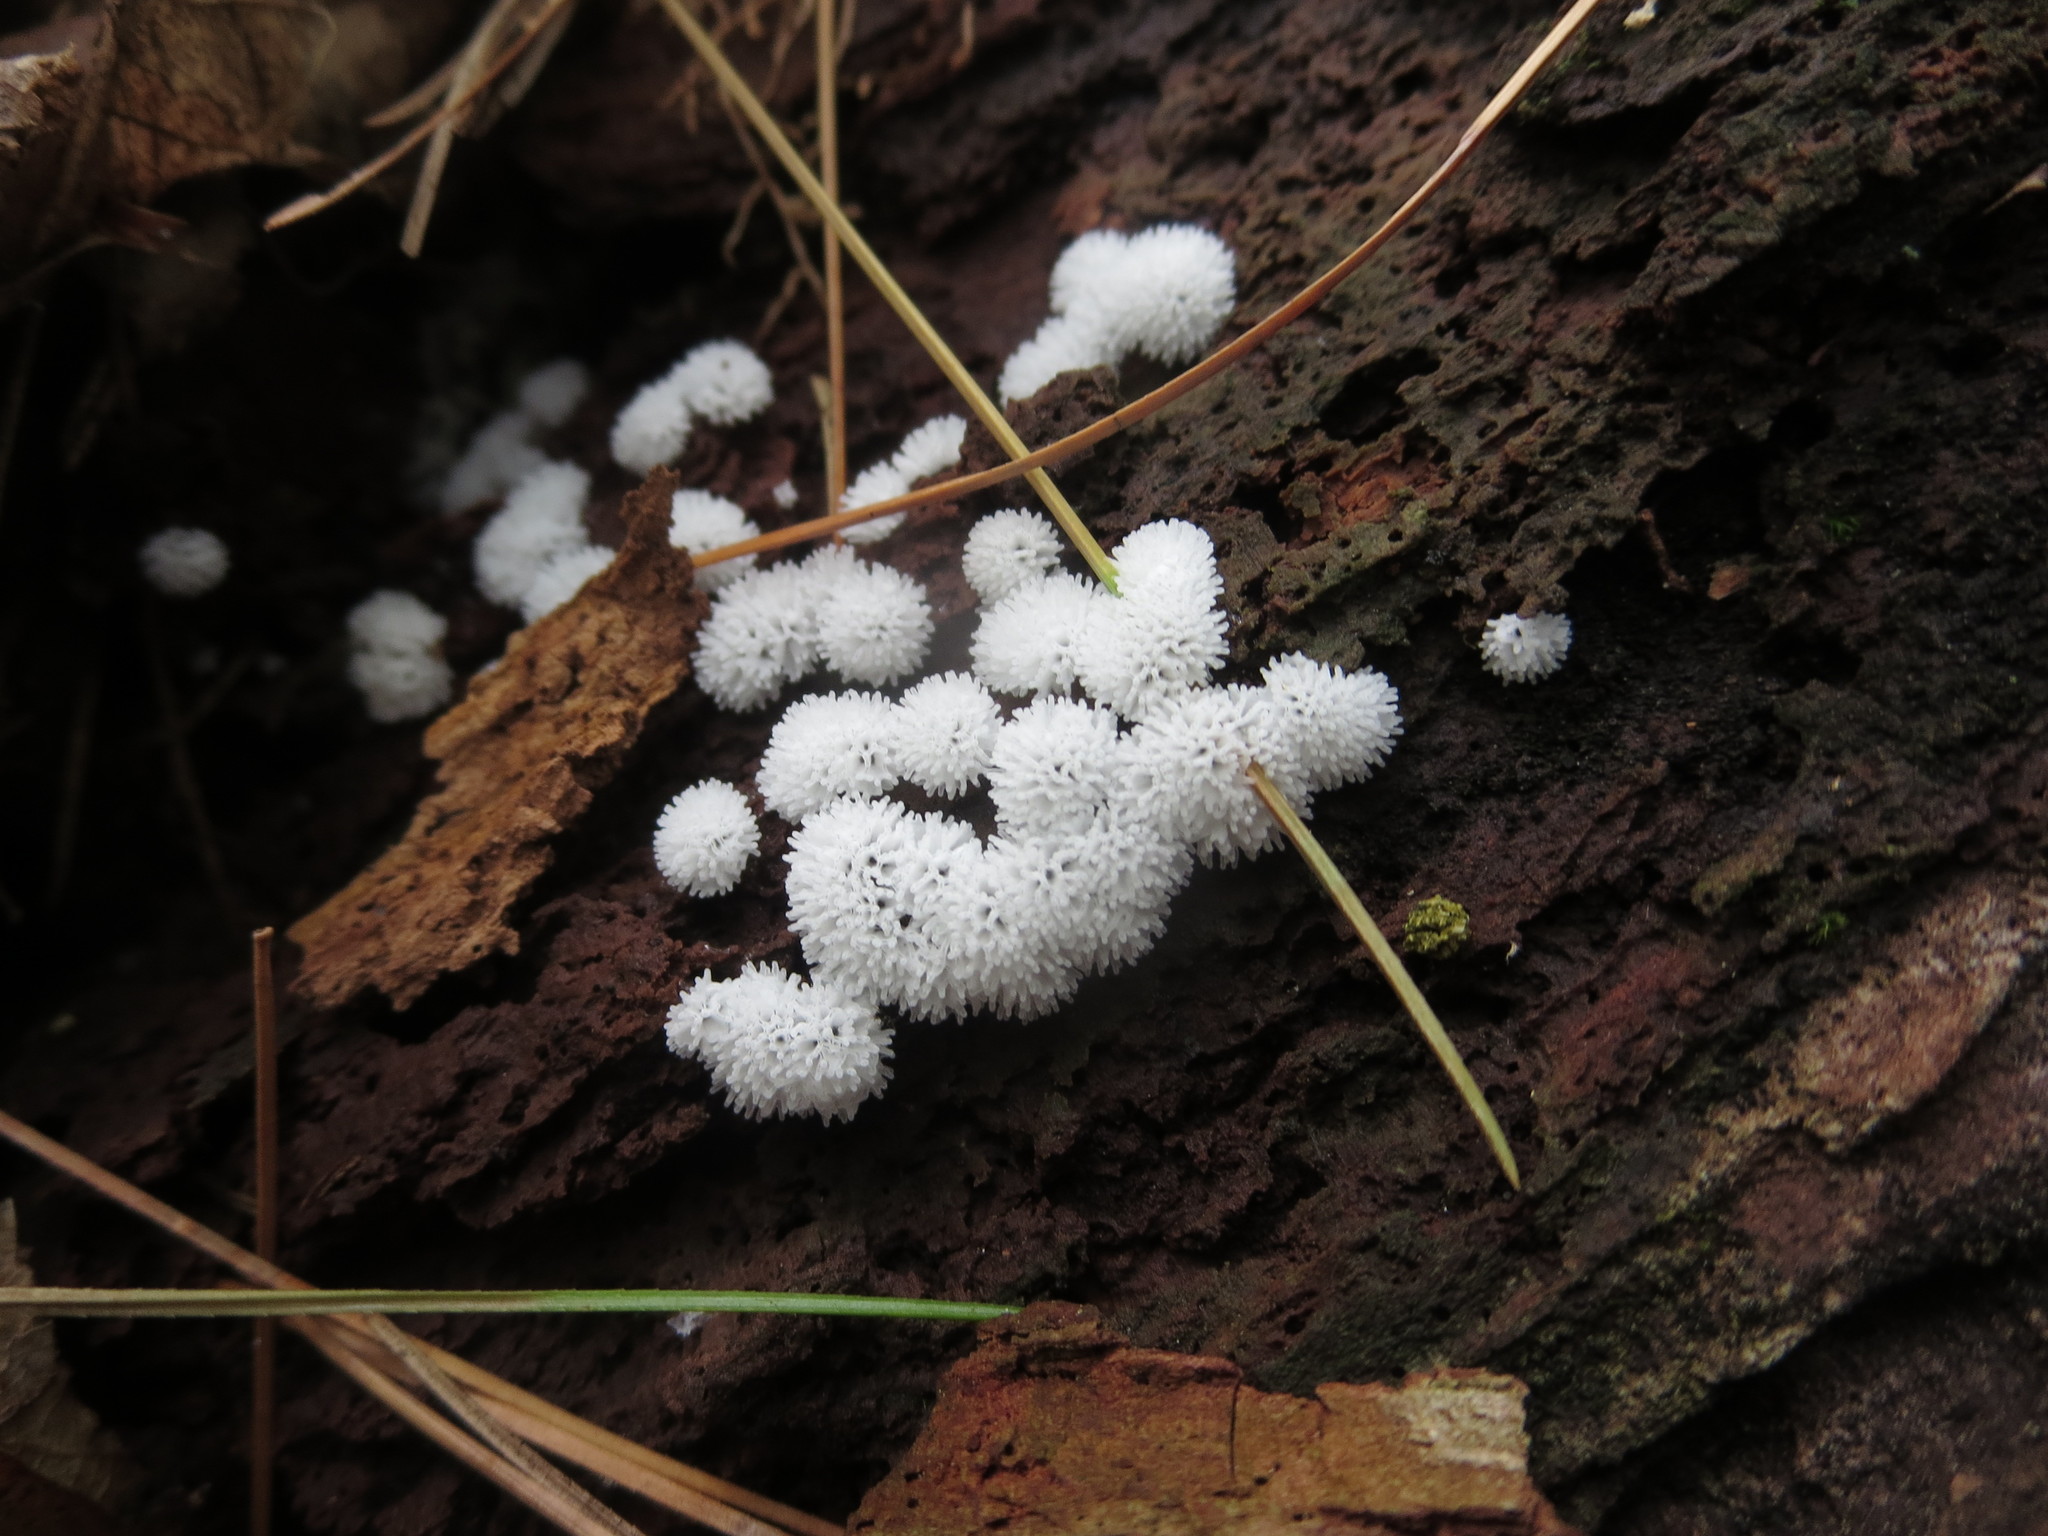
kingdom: Protozoa
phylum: Mycetozoa
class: Protosteliomycetes
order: Ceratiomyxales
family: Ceratiomyxaceae
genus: Ceratiomyxa
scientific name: Ceratiomyxa fruticulosa
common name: Honeycomb coral slime mold
